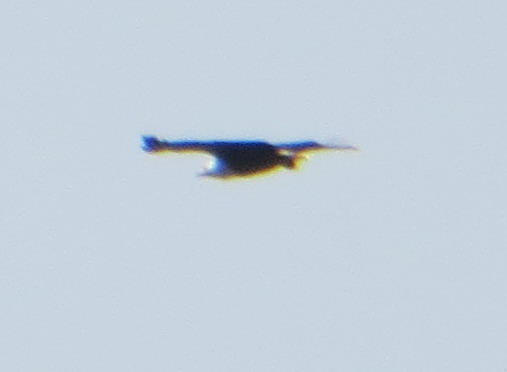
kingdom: Animalia
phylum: Chordata
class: Aves
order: Accipitriformes
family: Accipitridae
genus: Haliaeetus
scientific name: Haliaeetus vocifer
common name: African fish eagle
